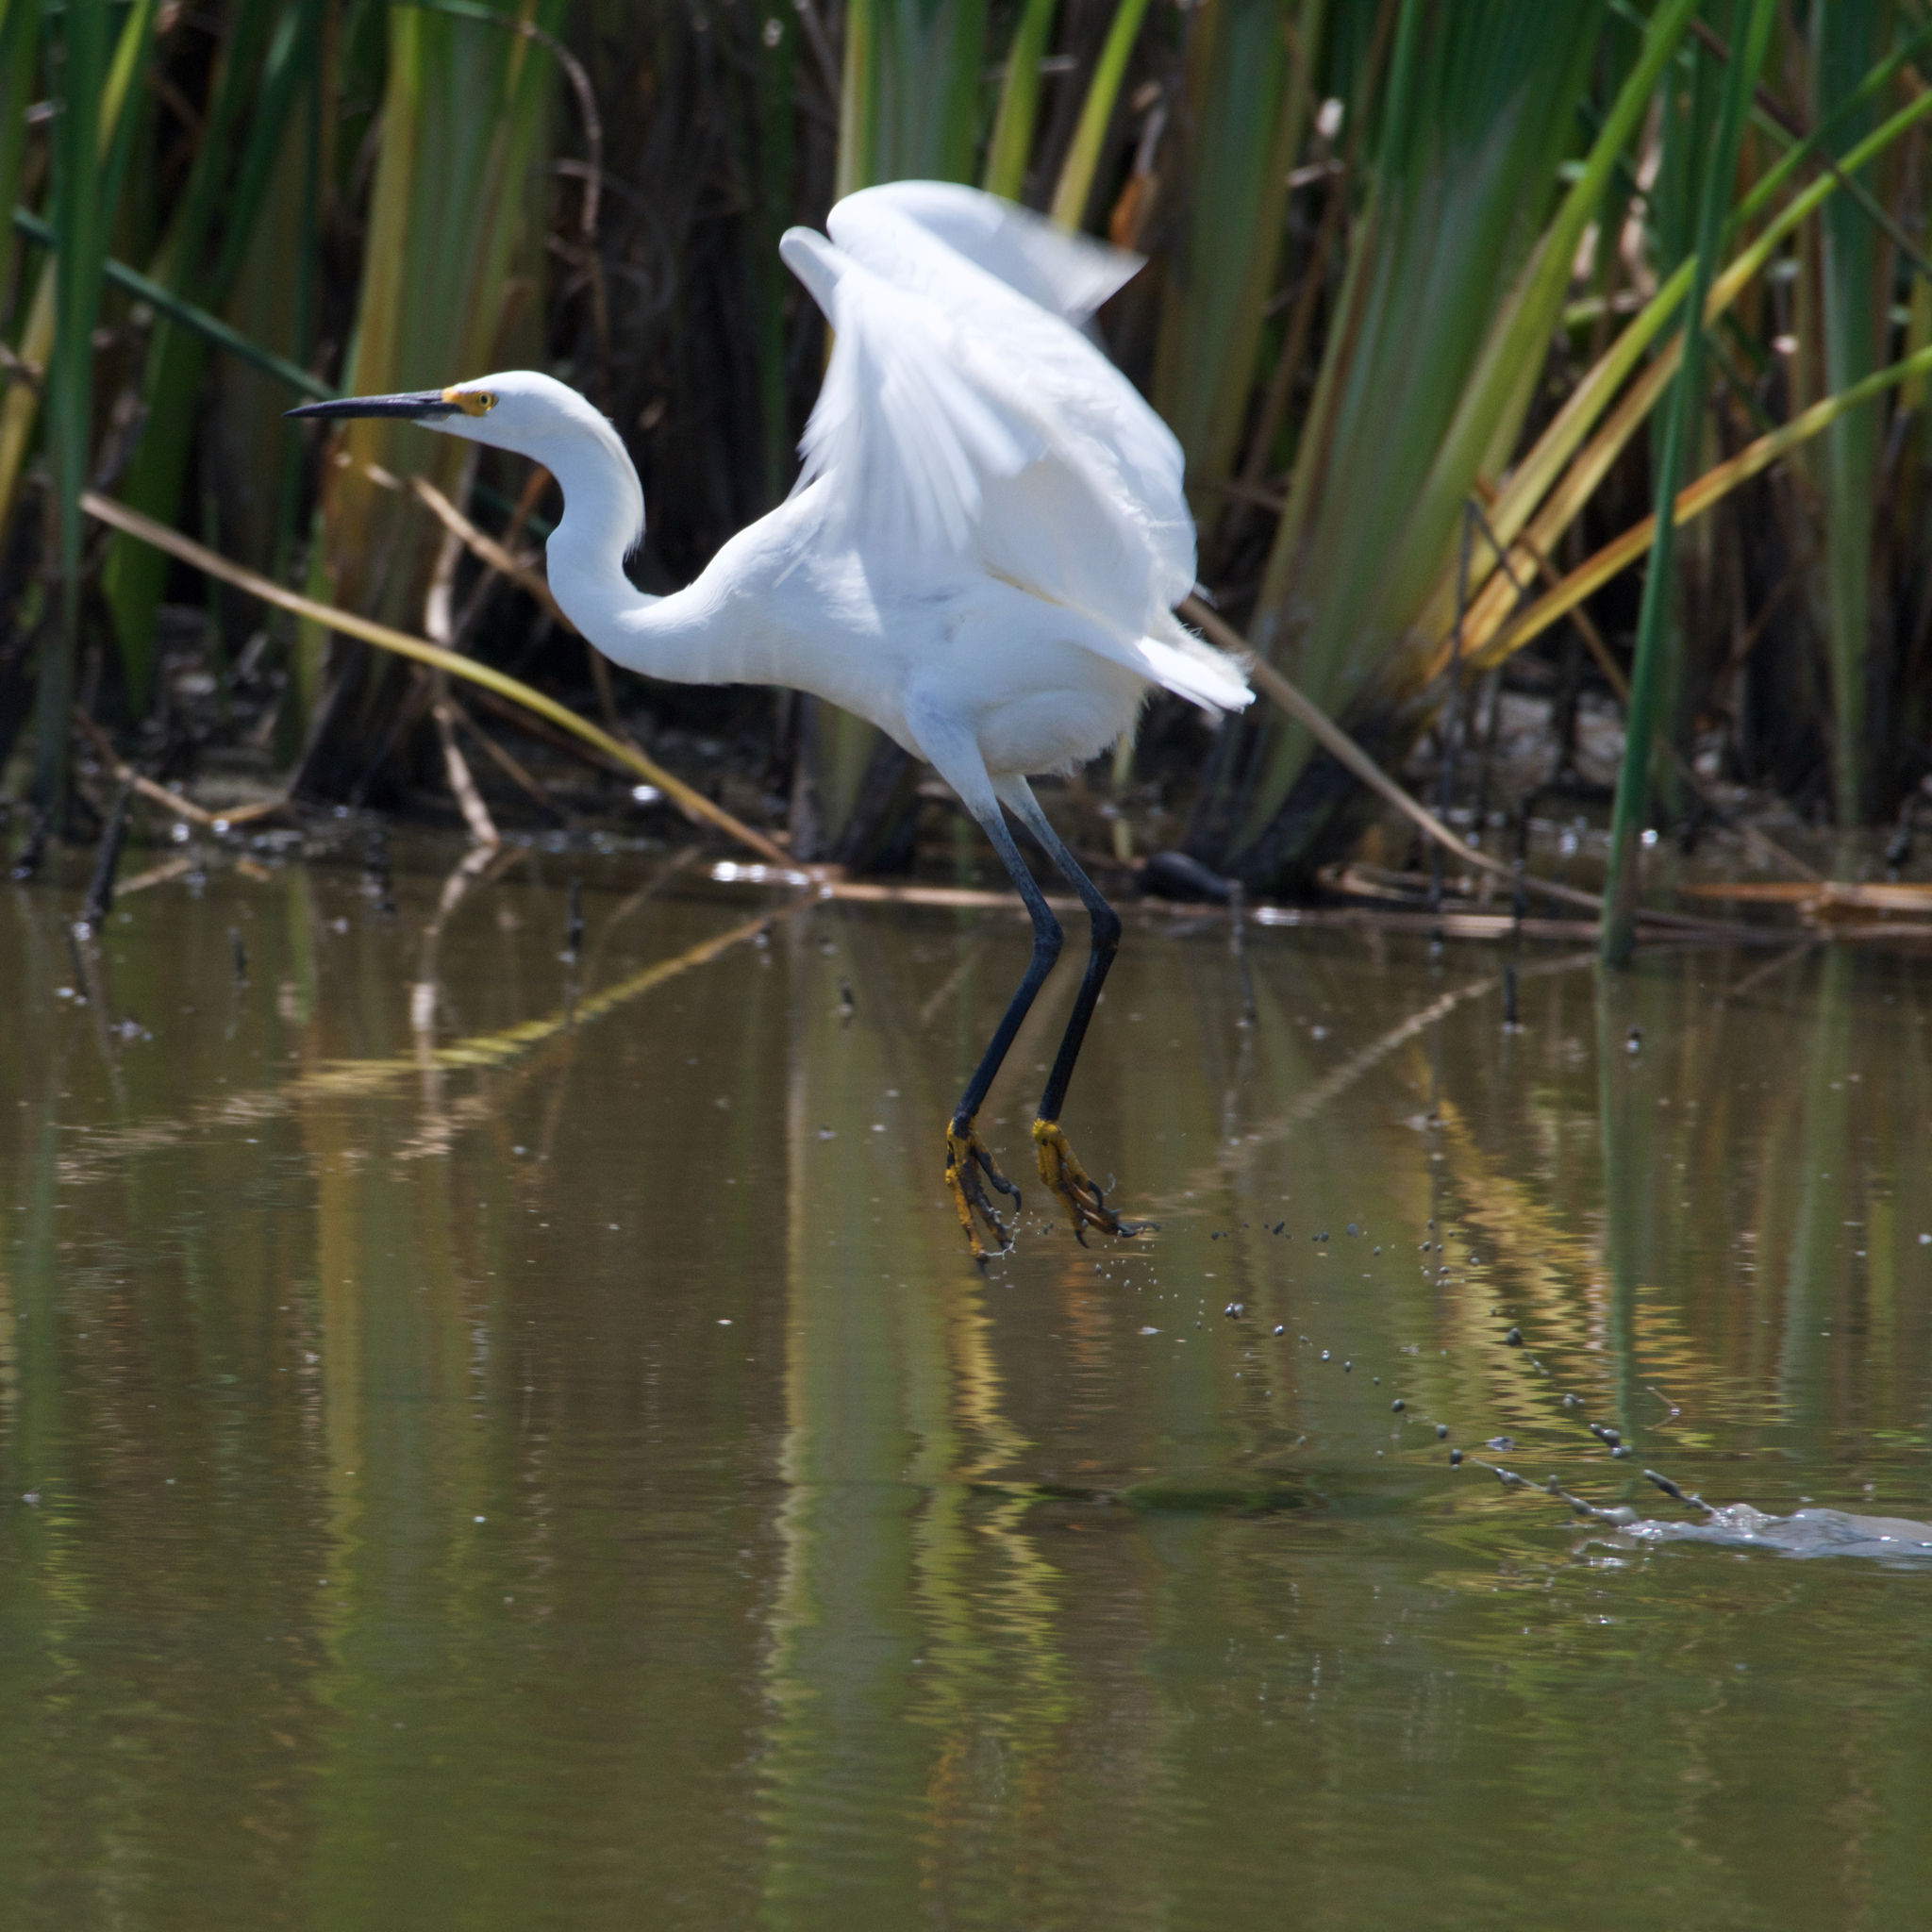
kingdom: Animalia
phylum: Chordata
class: Aves
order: Pelecaniformes
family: Ardeidae
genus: Egretta
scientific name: Egretta thula
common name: Snowy egret
